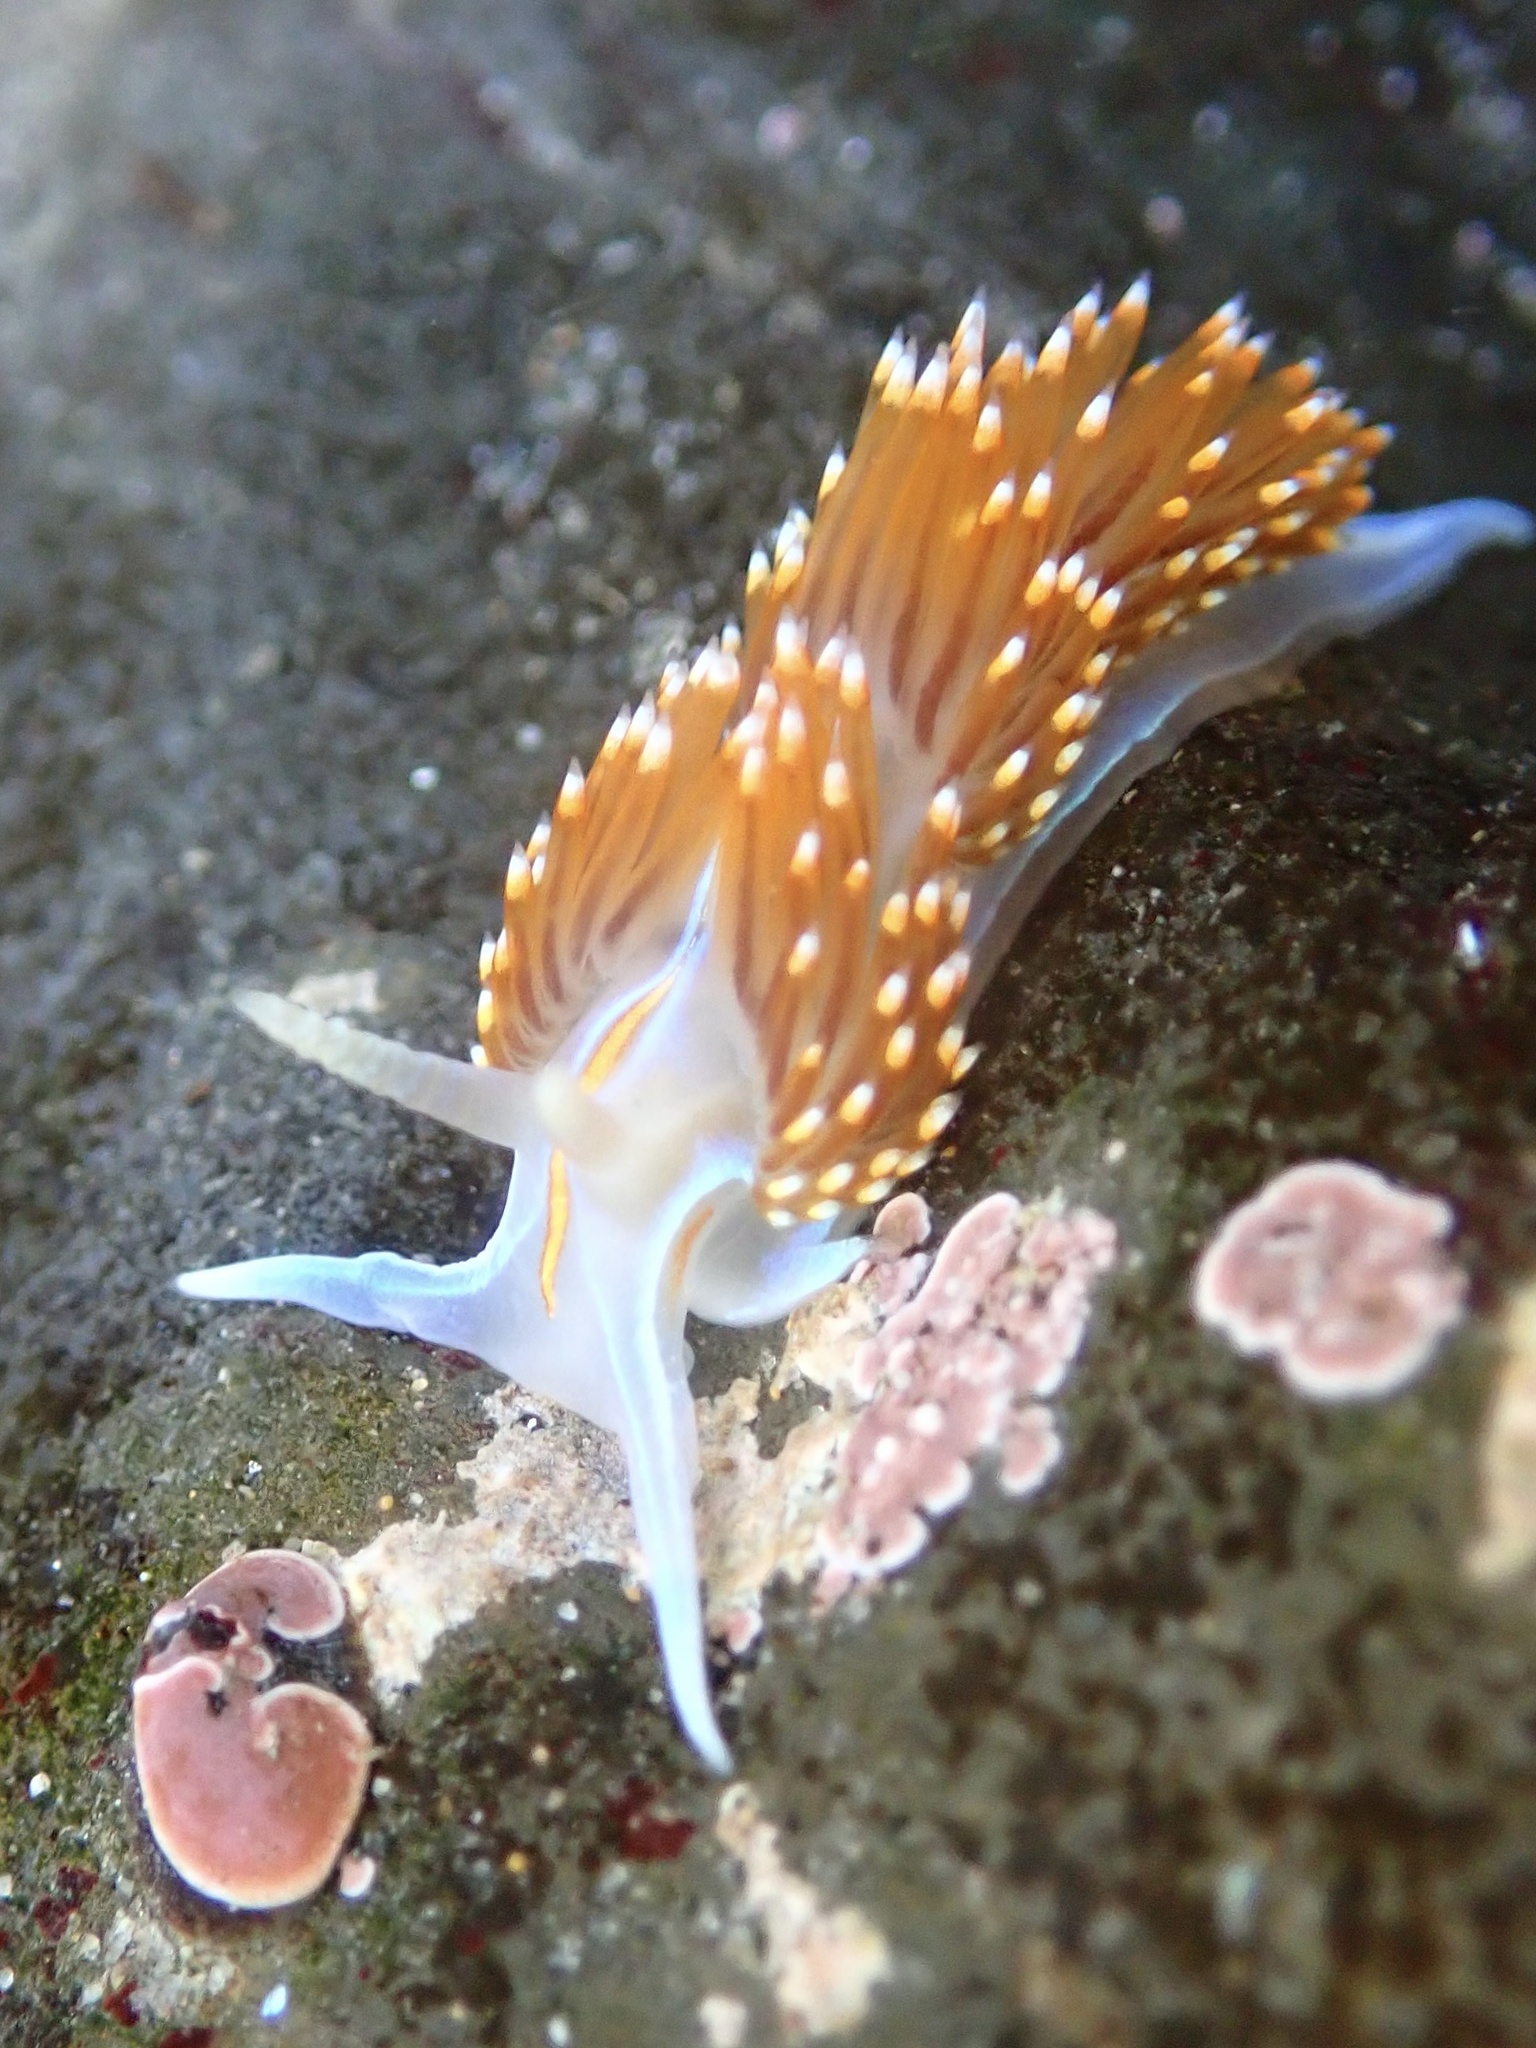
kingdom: Animalia
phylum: Mollusca
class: Gastropoda
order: Nudibranchia
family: Myrrhinidae
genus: Hermissenda
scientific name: Hermissenda opalescens
